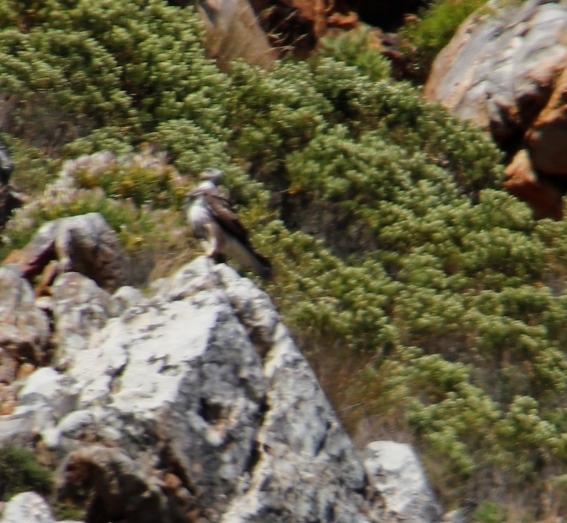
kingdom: Animalia
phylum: Chordata
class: Aves
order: Accipitriformes
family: Accipitridae
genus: Buteo
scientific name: Buteo trizonatus
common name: Forest buzzard
